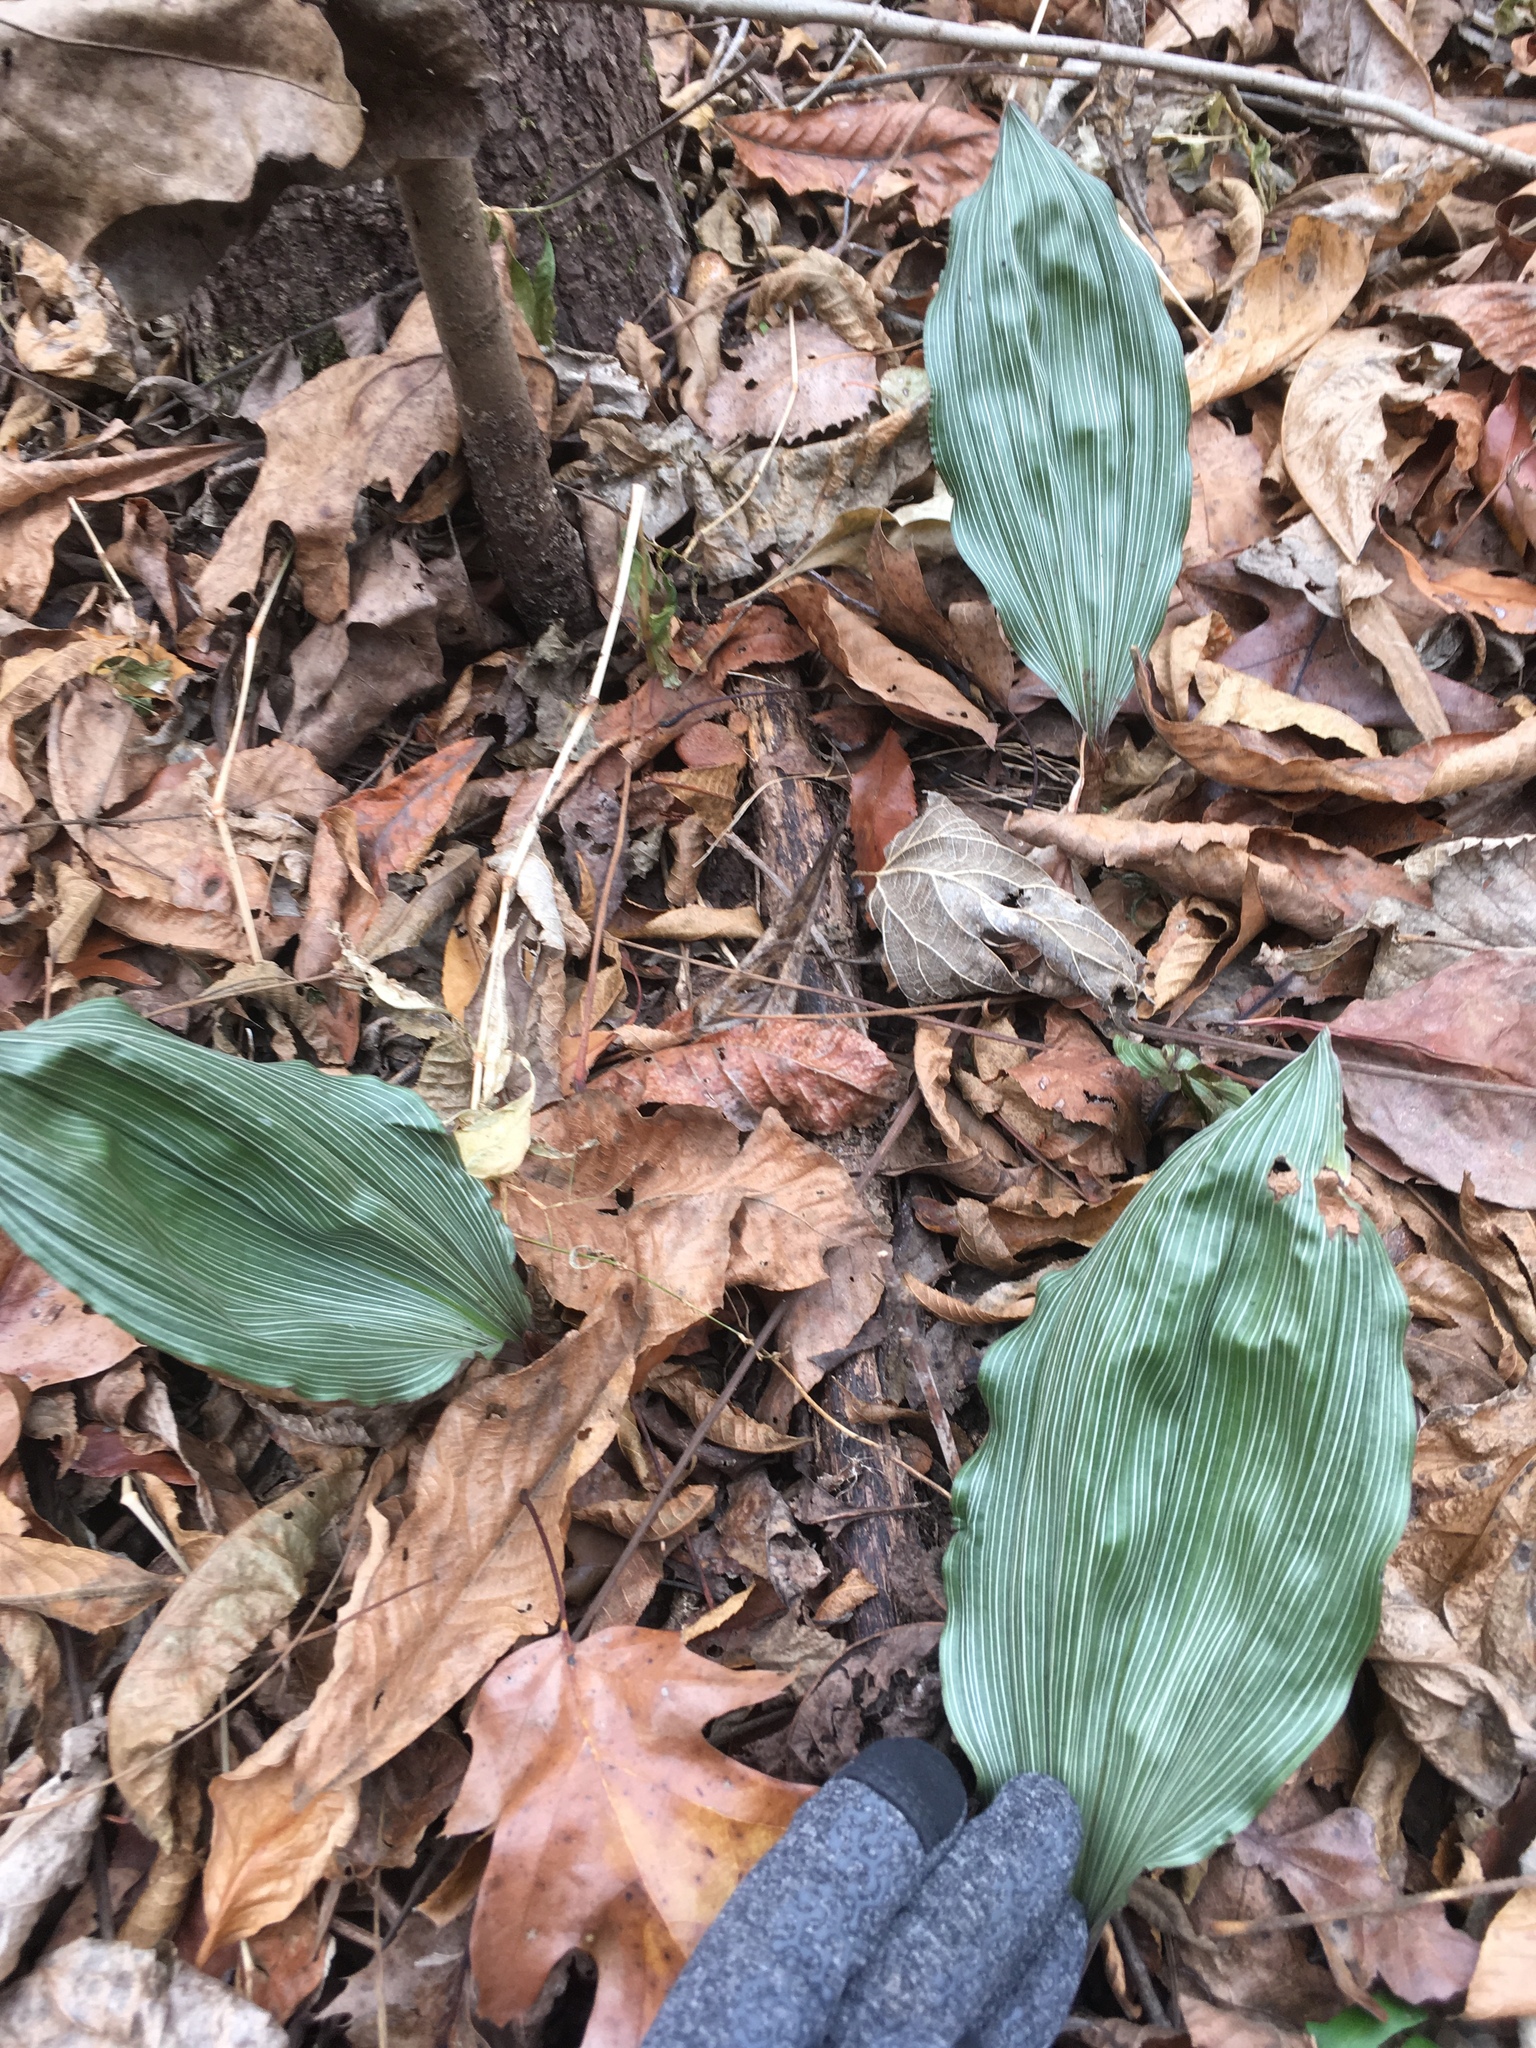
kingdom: Plantae
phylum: Tracheophyta
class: Liliopsida
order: Asparagales
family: Orchidaceae
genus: Aplectrum
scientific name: Aplectrum hyemale
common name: Adam-and-eve
